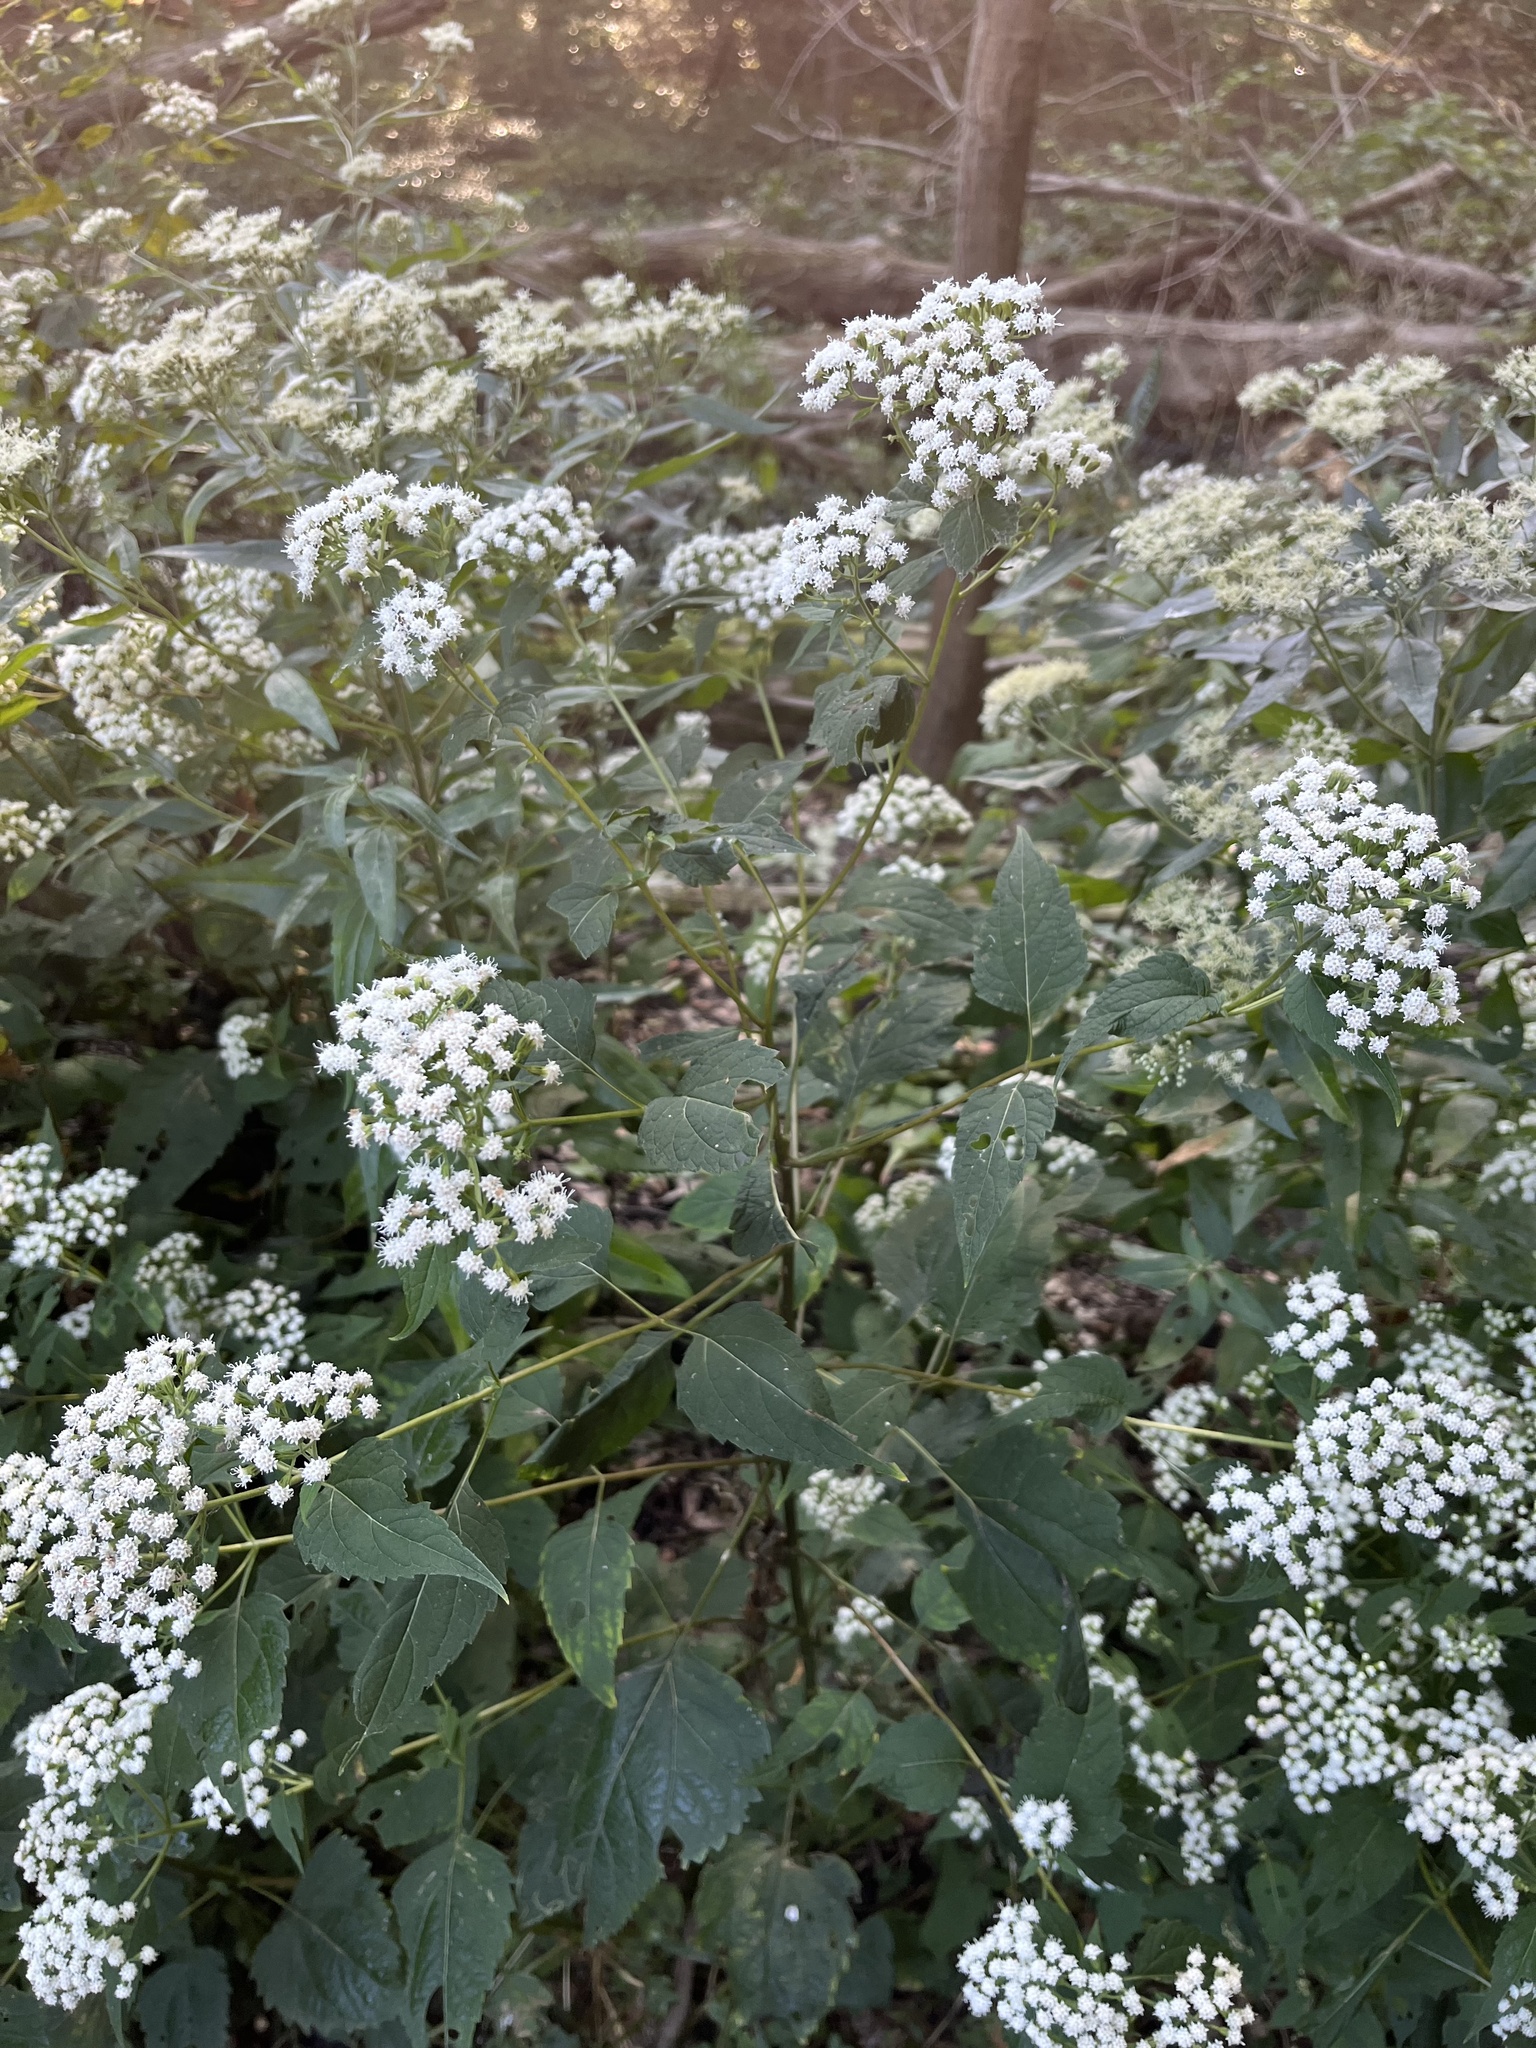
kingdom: Plantae
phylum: Tracheophyta
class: Magnoliopsida
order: Asterales
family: Asteraceae
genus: Ageratina
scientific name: Ageratina altissima
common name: White snakeroot
